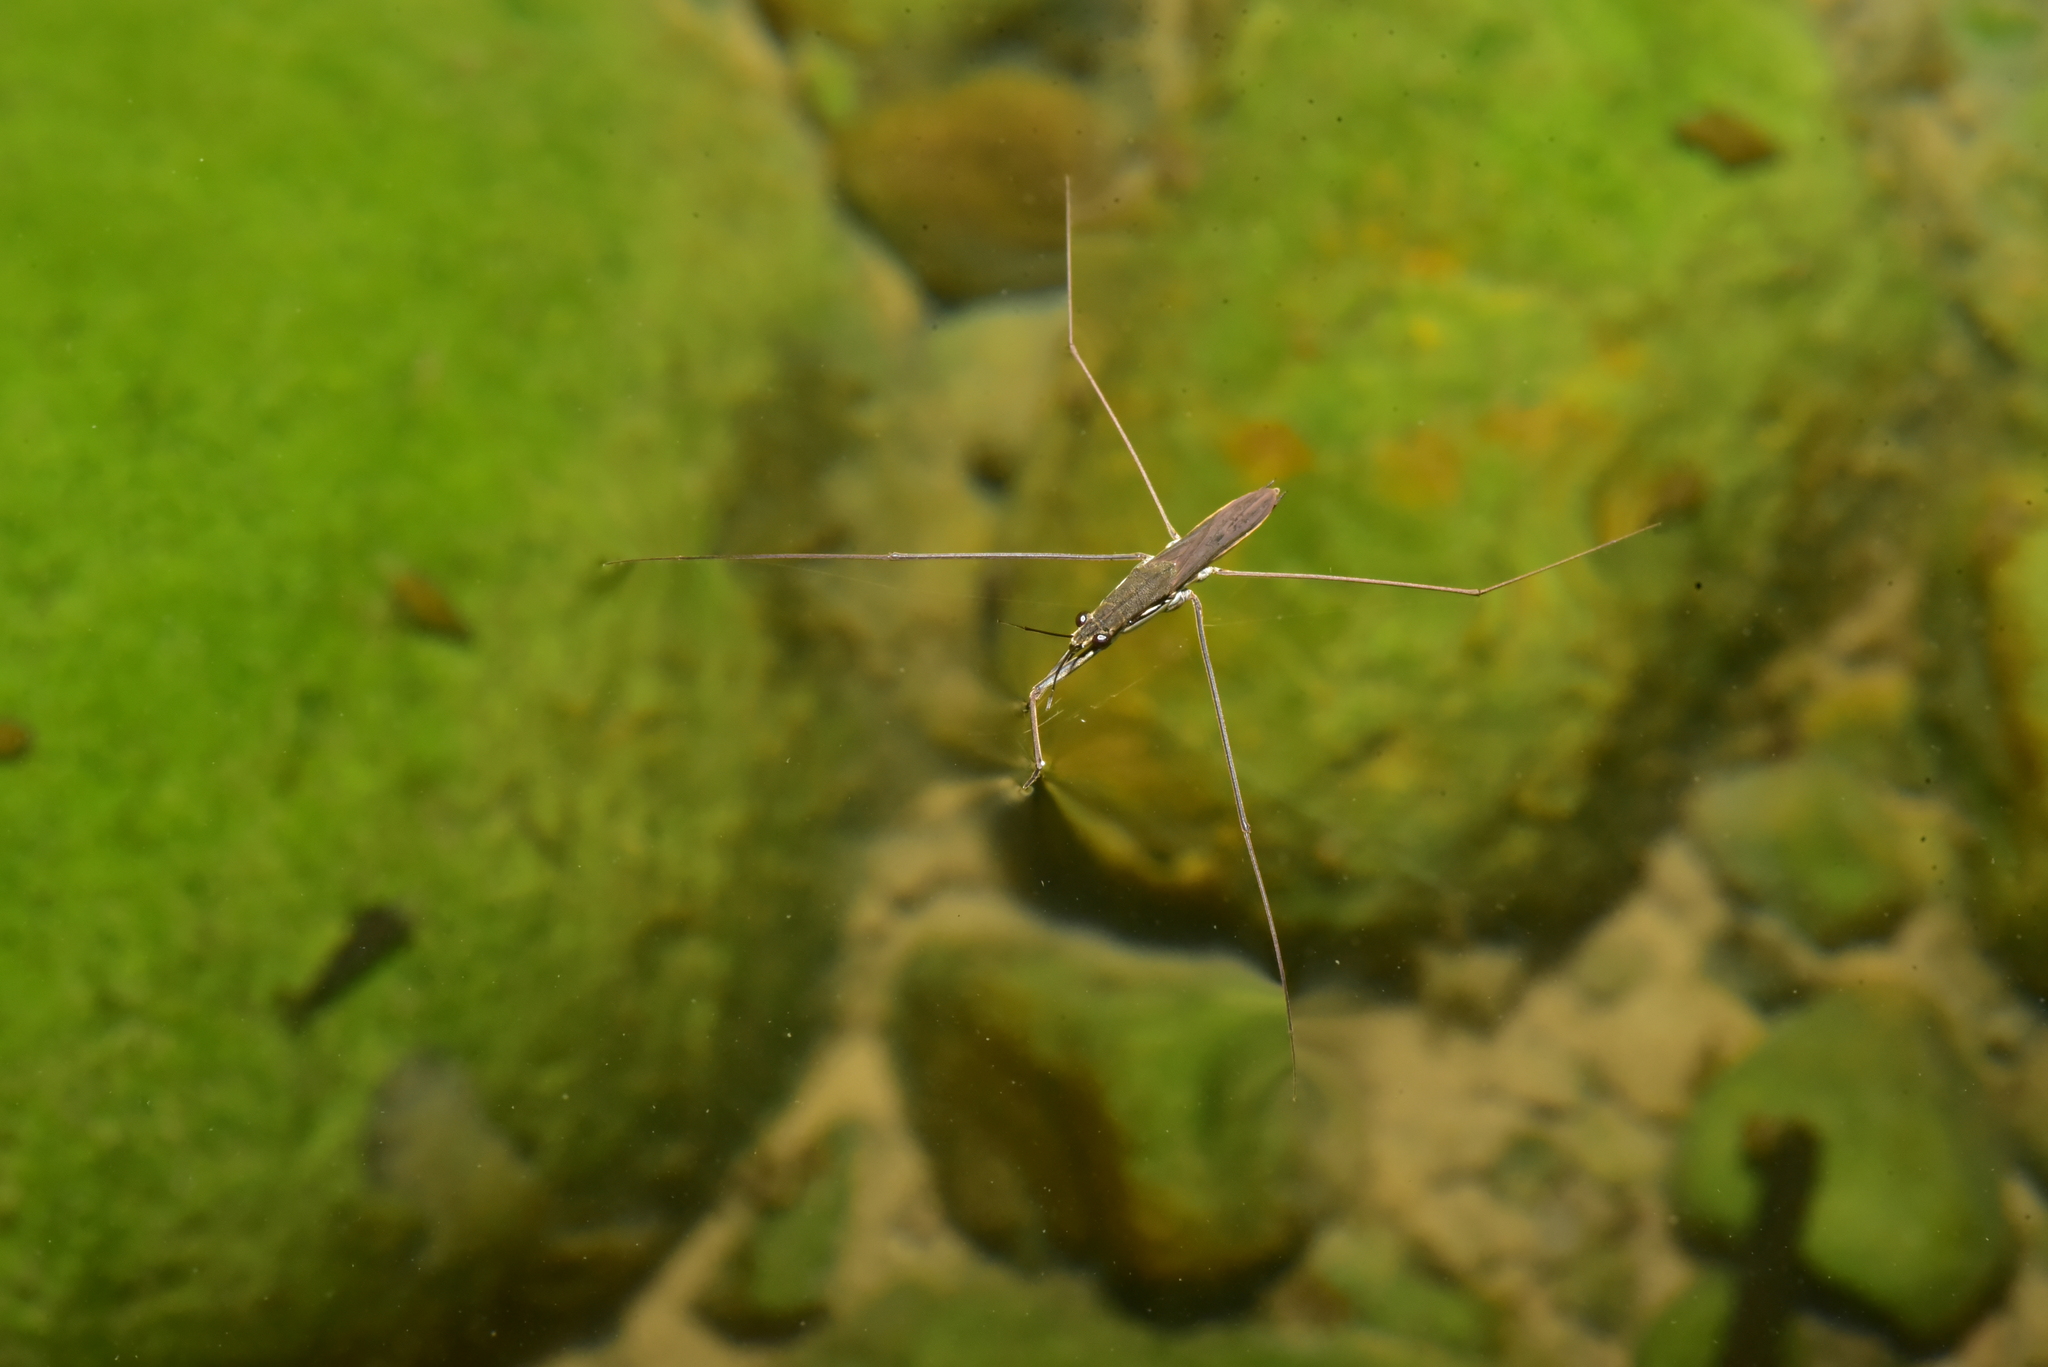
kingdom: Animalia
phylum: Arthropoda
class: Insecta
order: Hemiptera
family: Gerridae
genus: Aquarius
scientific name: Aquarius paludum
